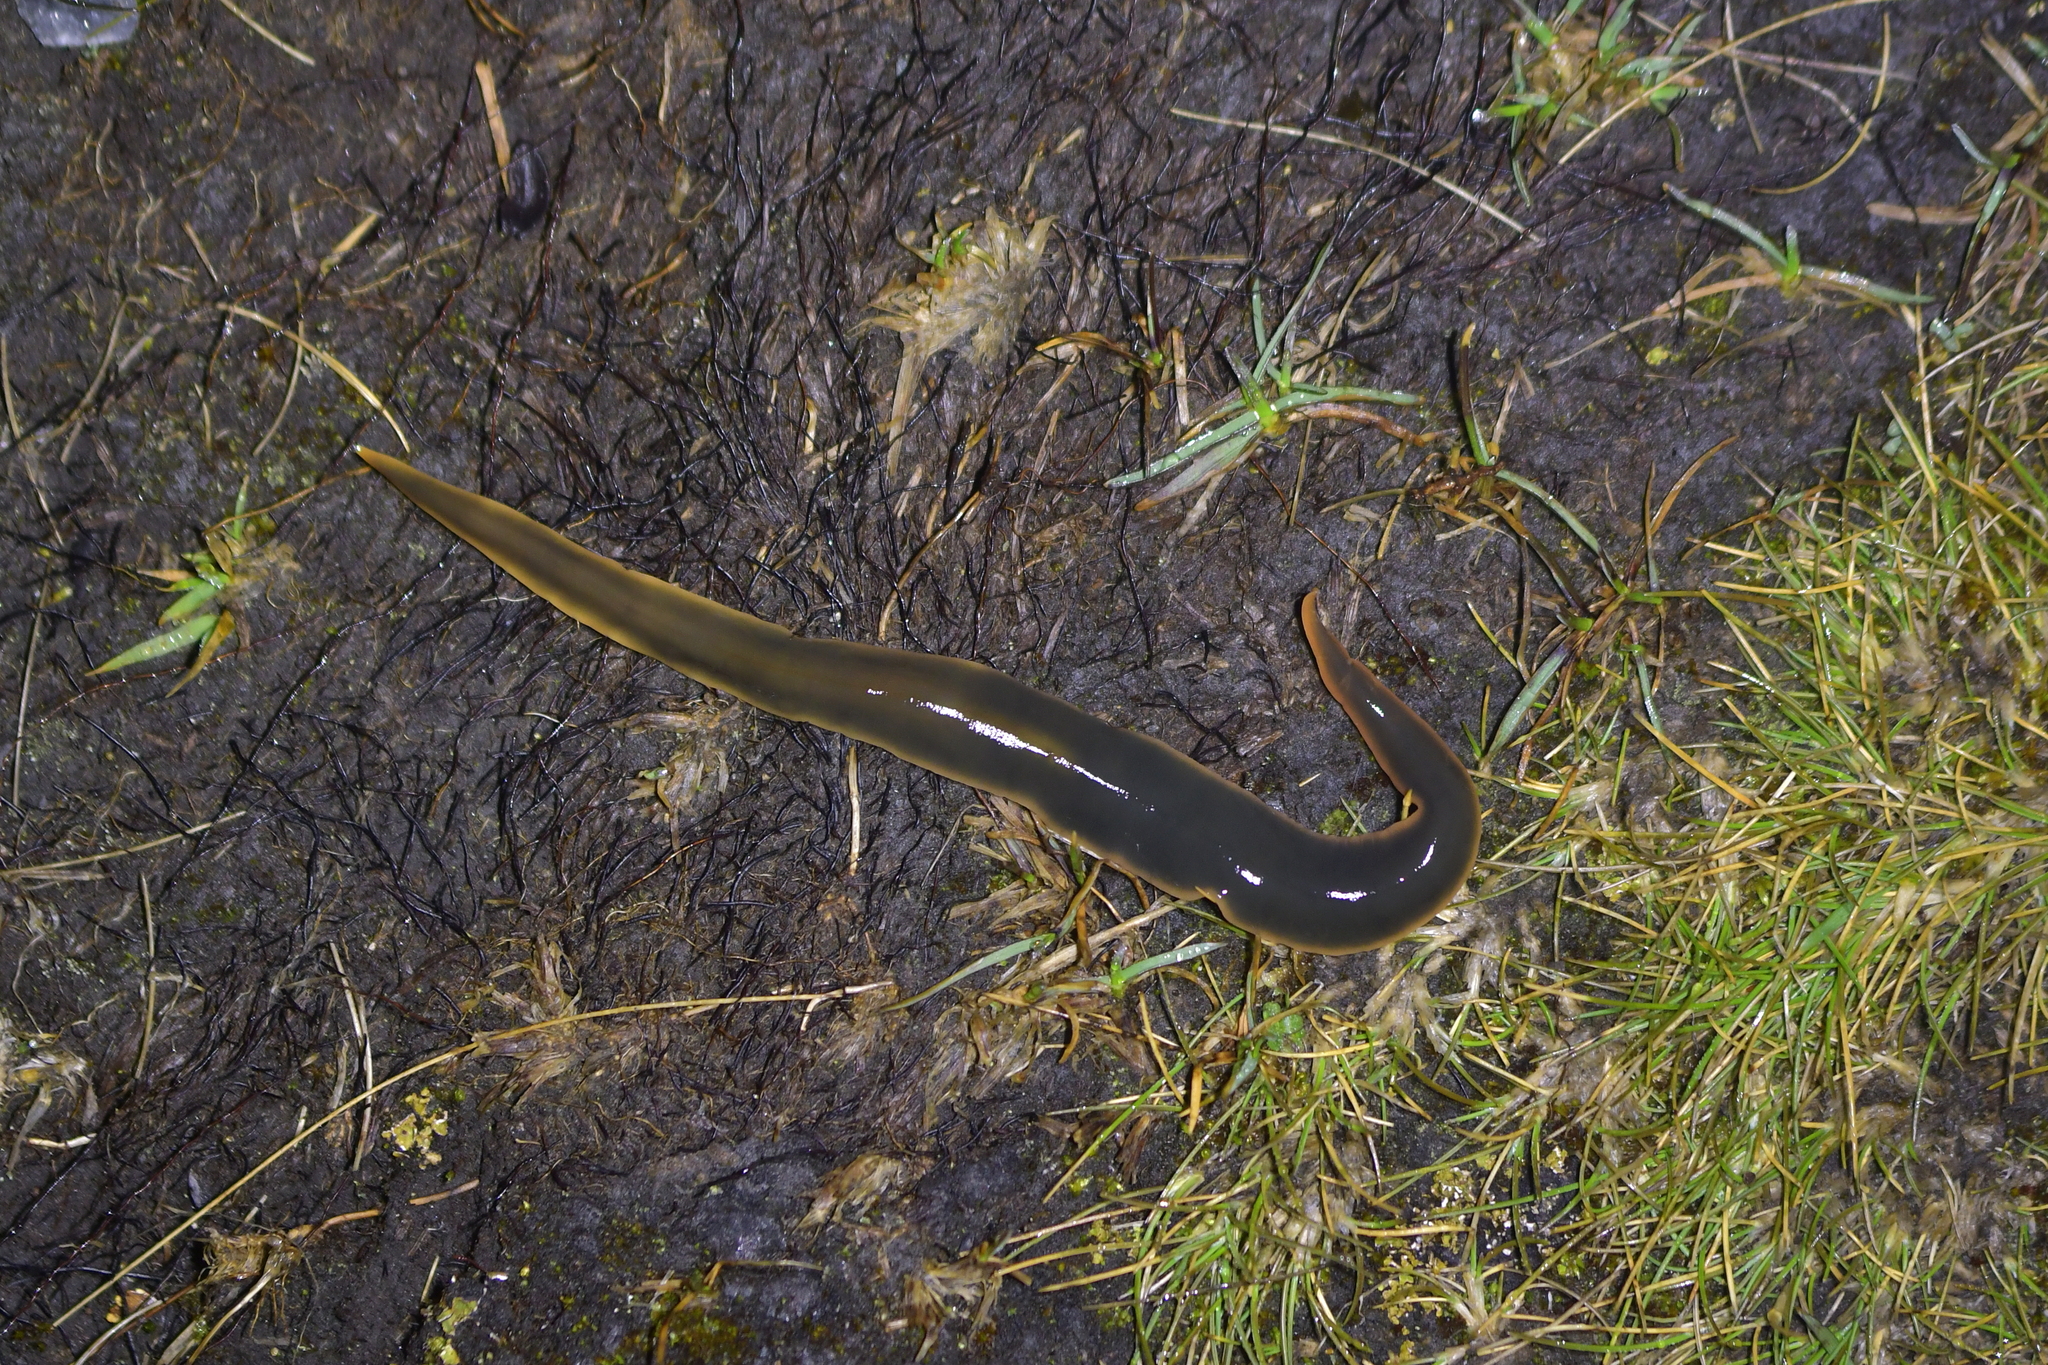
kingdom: Animalia
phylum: Platyhelminthes
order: Tricladida
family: Geoplanidae
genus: Australopacifica
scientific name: Australopacifica
